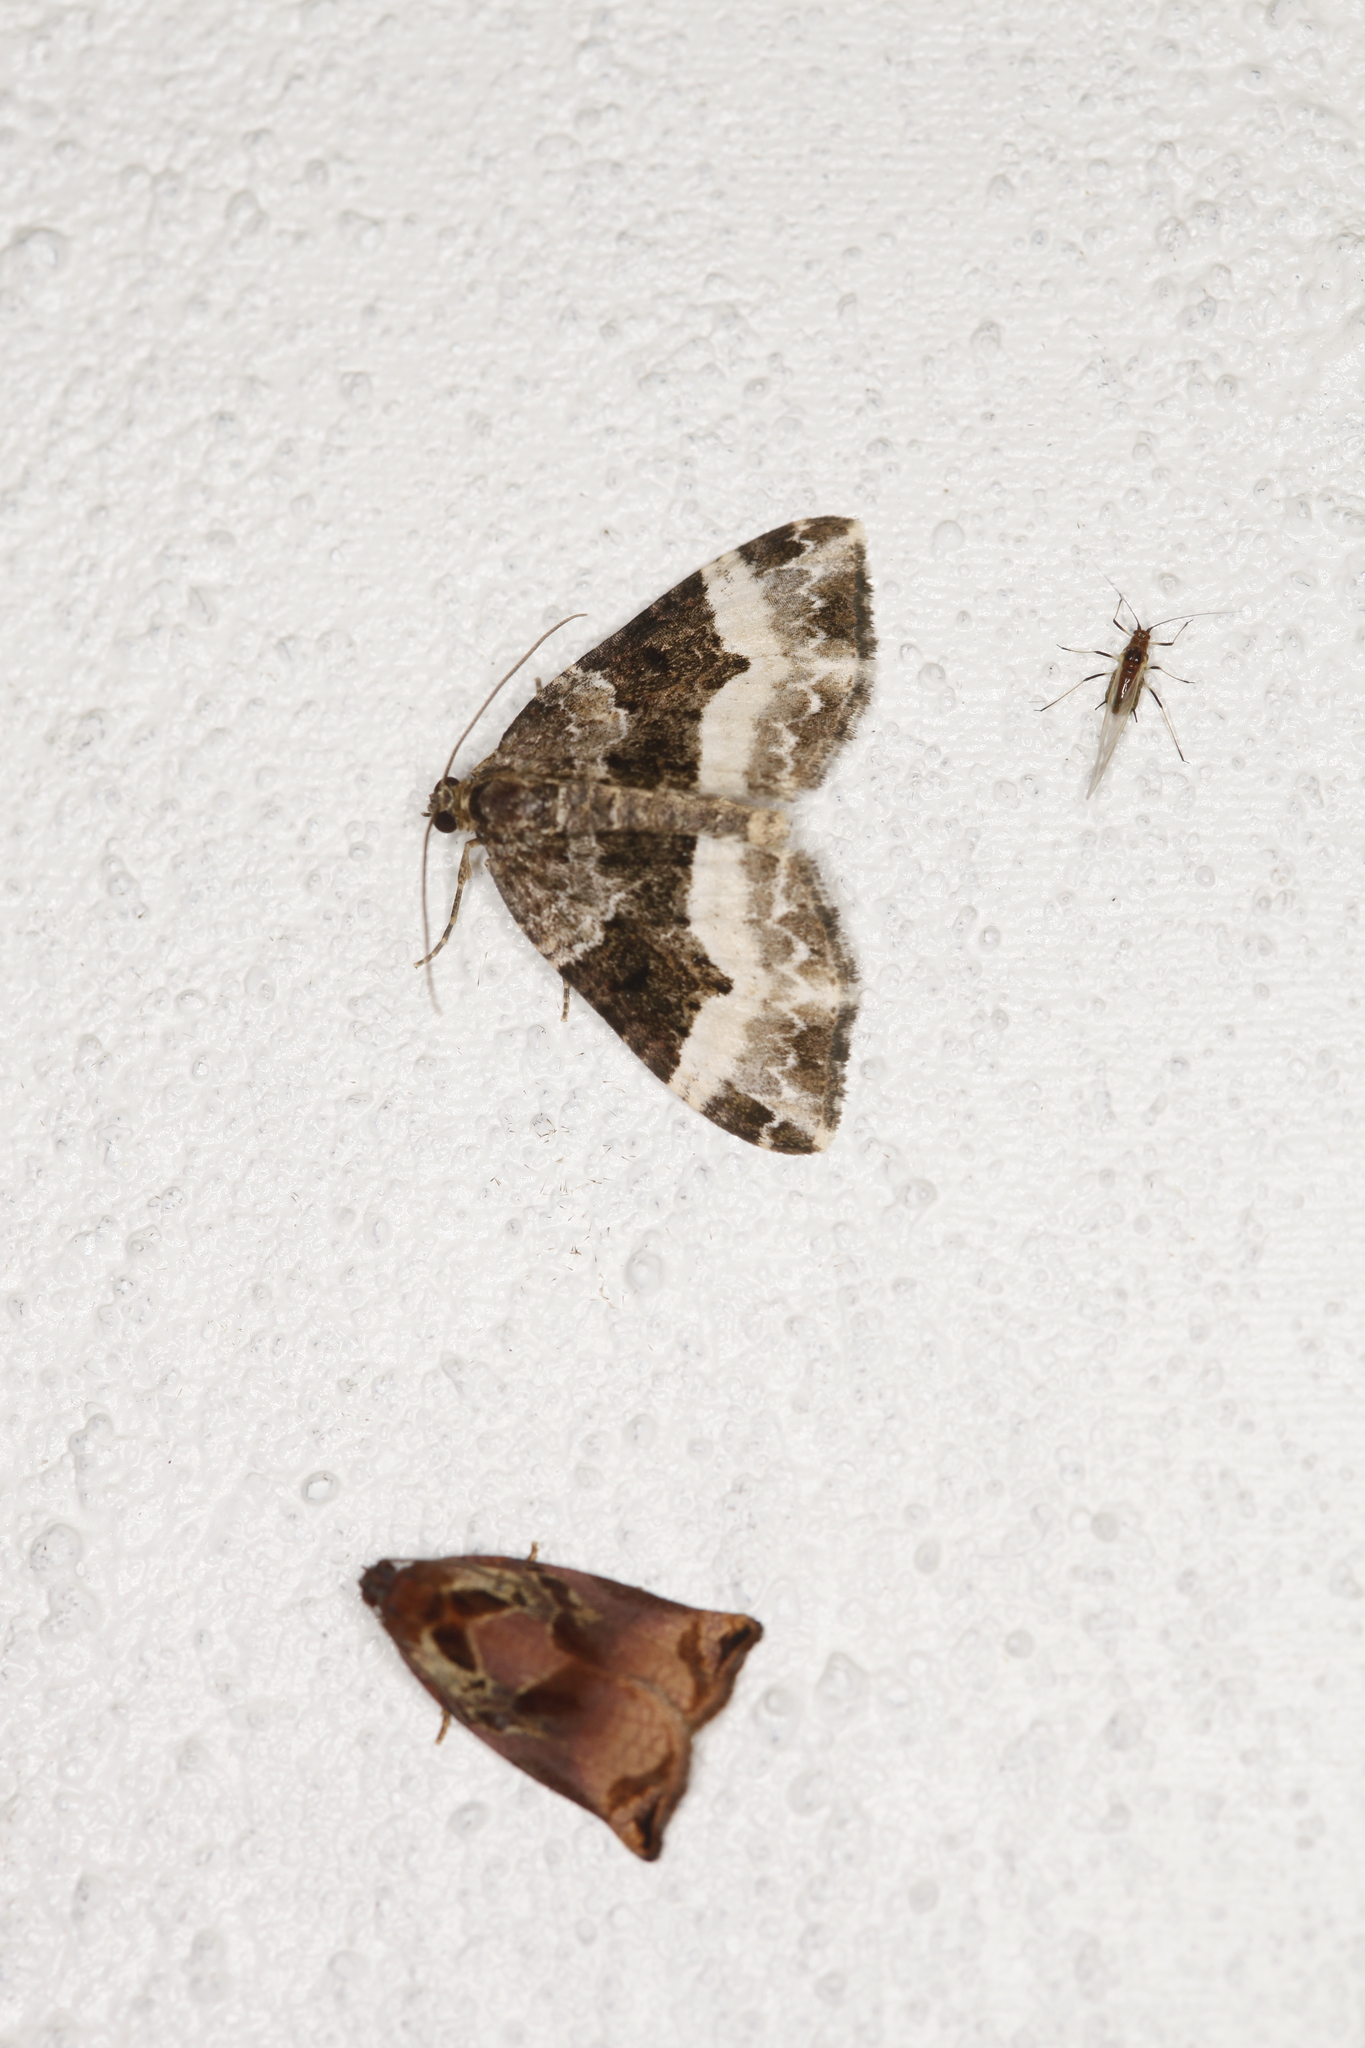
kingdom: Animalia
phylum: Arthropoda
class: Insecta
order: Lepidoptera
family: Geometridae
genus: Epirrhoe
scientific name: Epirrhoe alternata
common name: Common carpet
